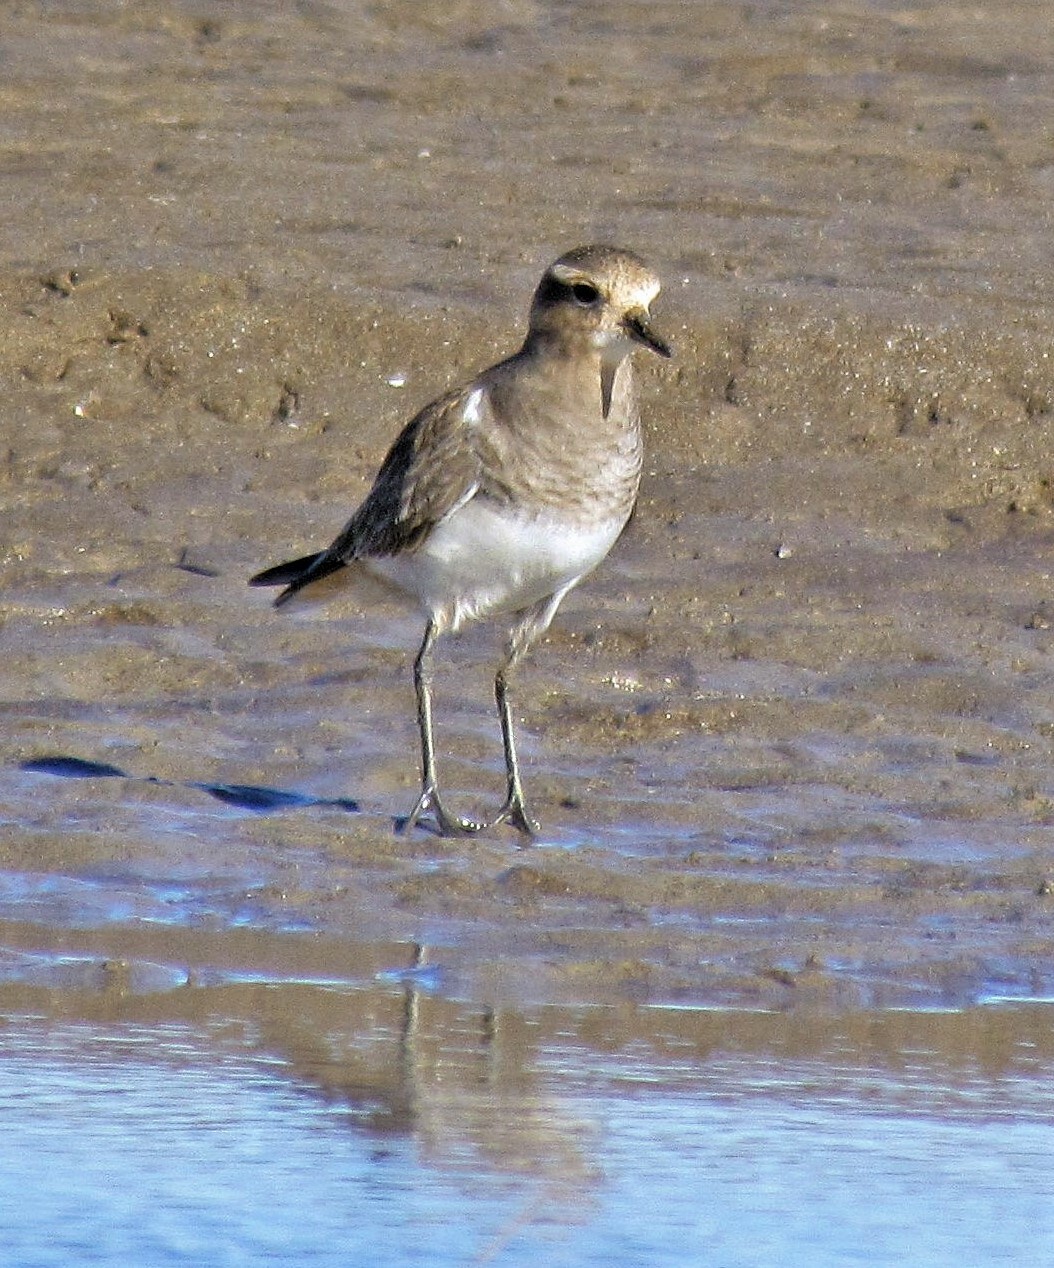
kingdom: Animalia
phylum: Chordata
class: Aves
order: Charadriiformes
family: Charadriidae
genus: Charadrius
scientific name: Charadrius modestus
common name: Rufous-chested plover
